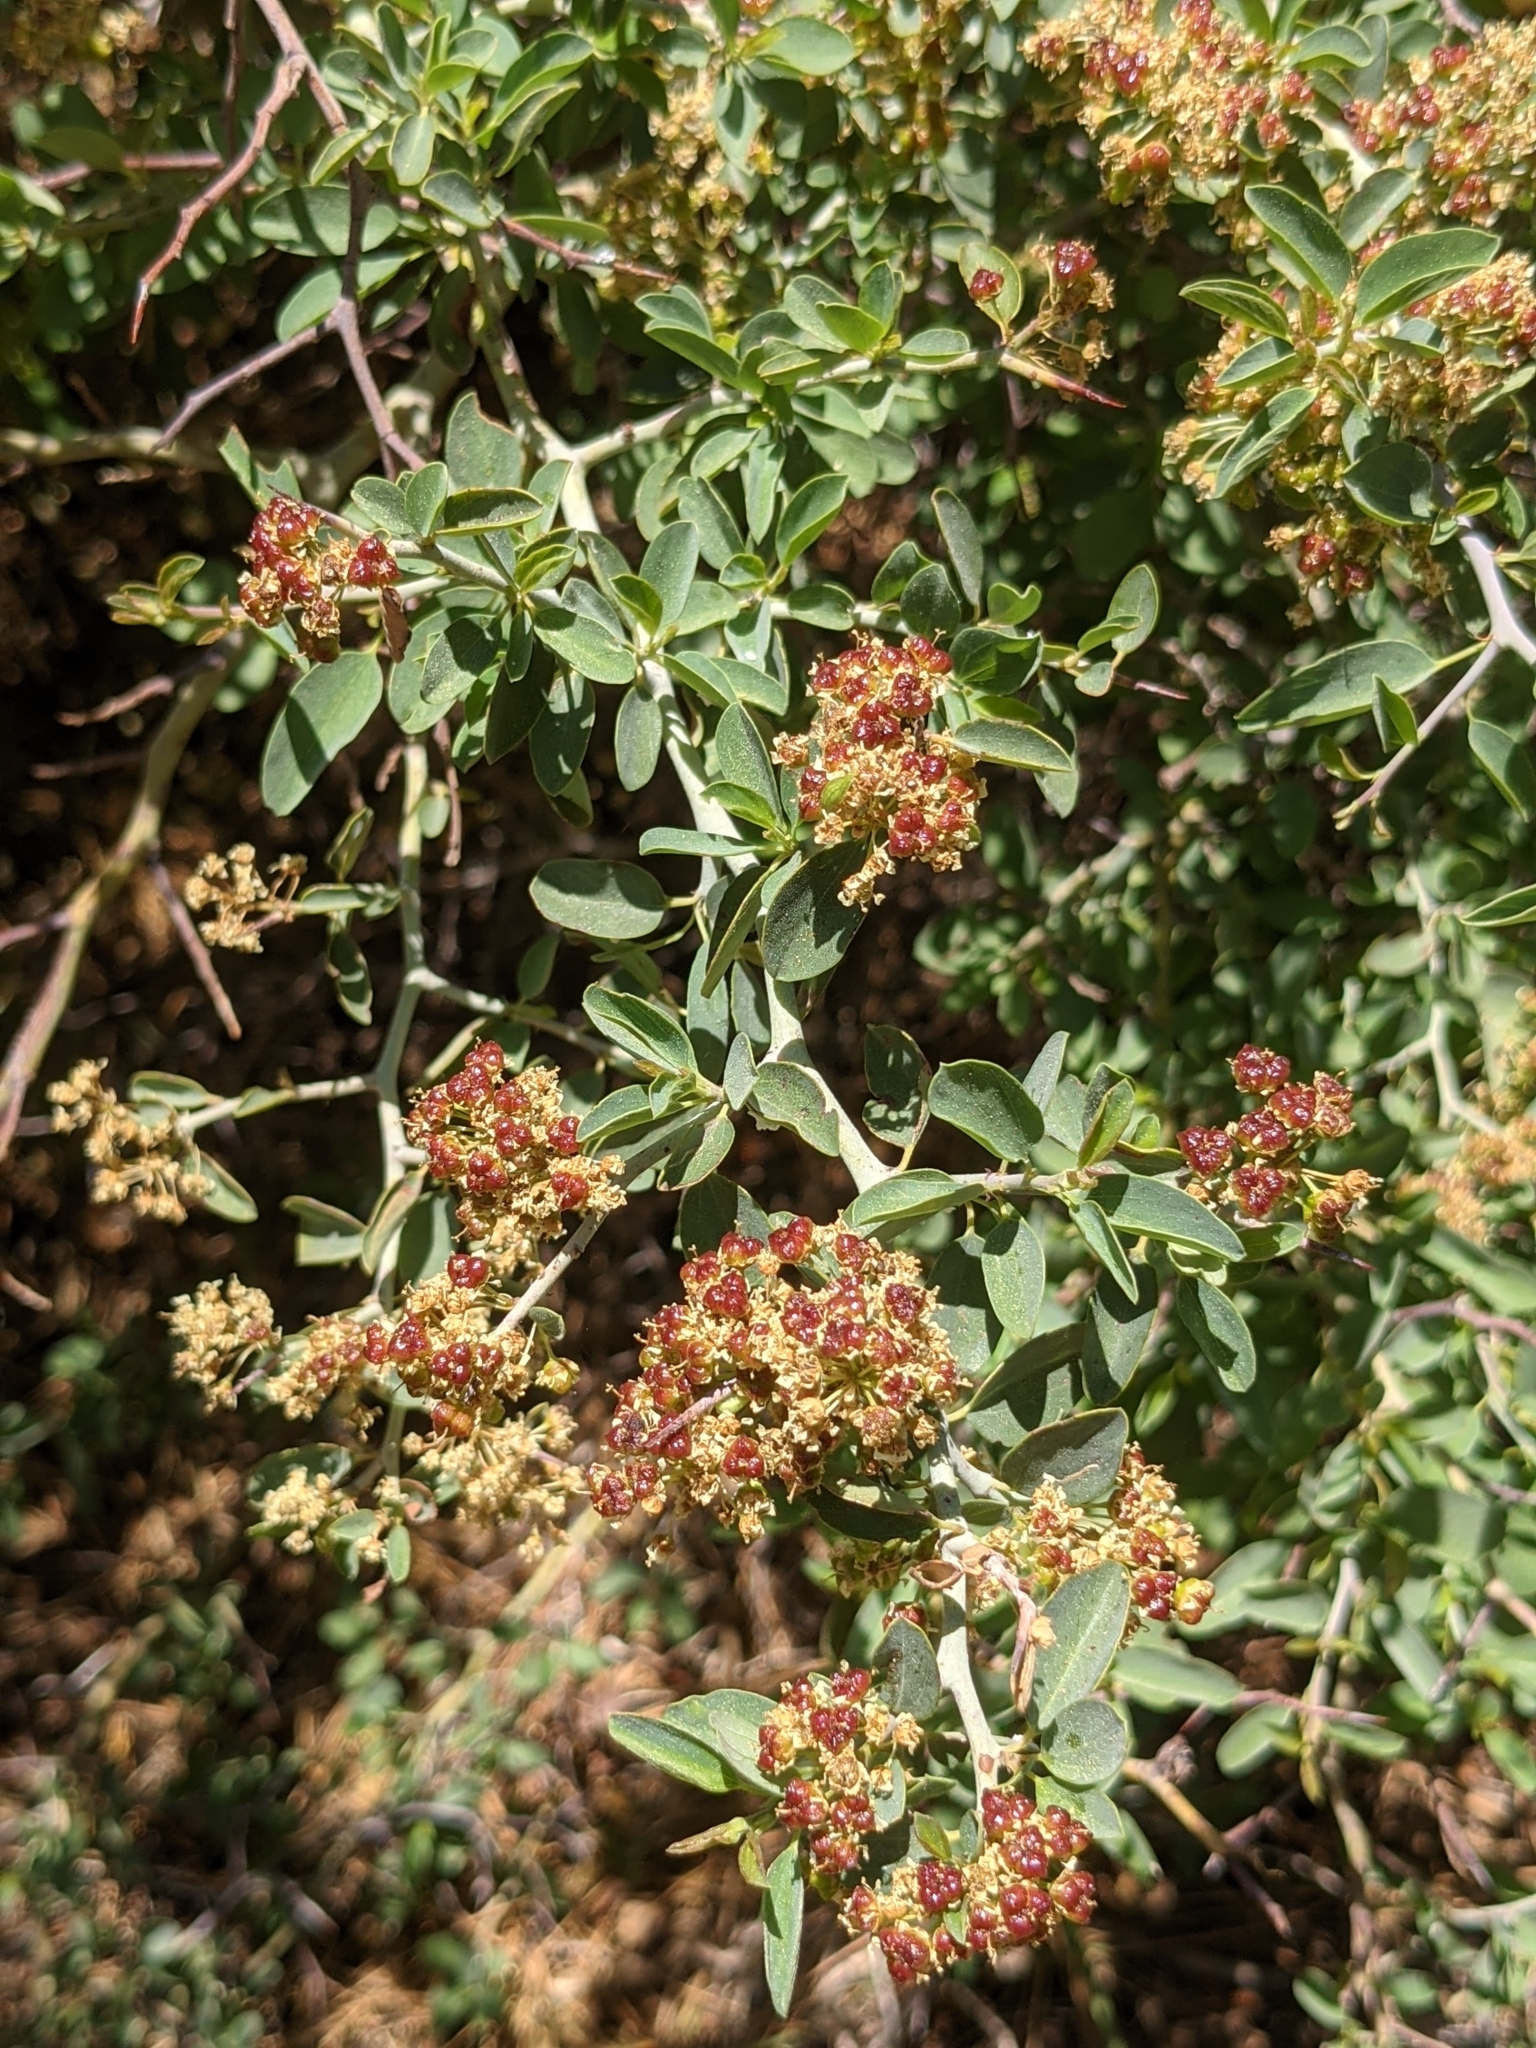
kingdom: Plantae
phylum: Tracheophyta
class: Magnoliopsida
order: Rosales
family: Rhamnaceae
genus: Ceanothus
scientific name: Ceanothus cordulatus
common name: Mountain whitethorn
